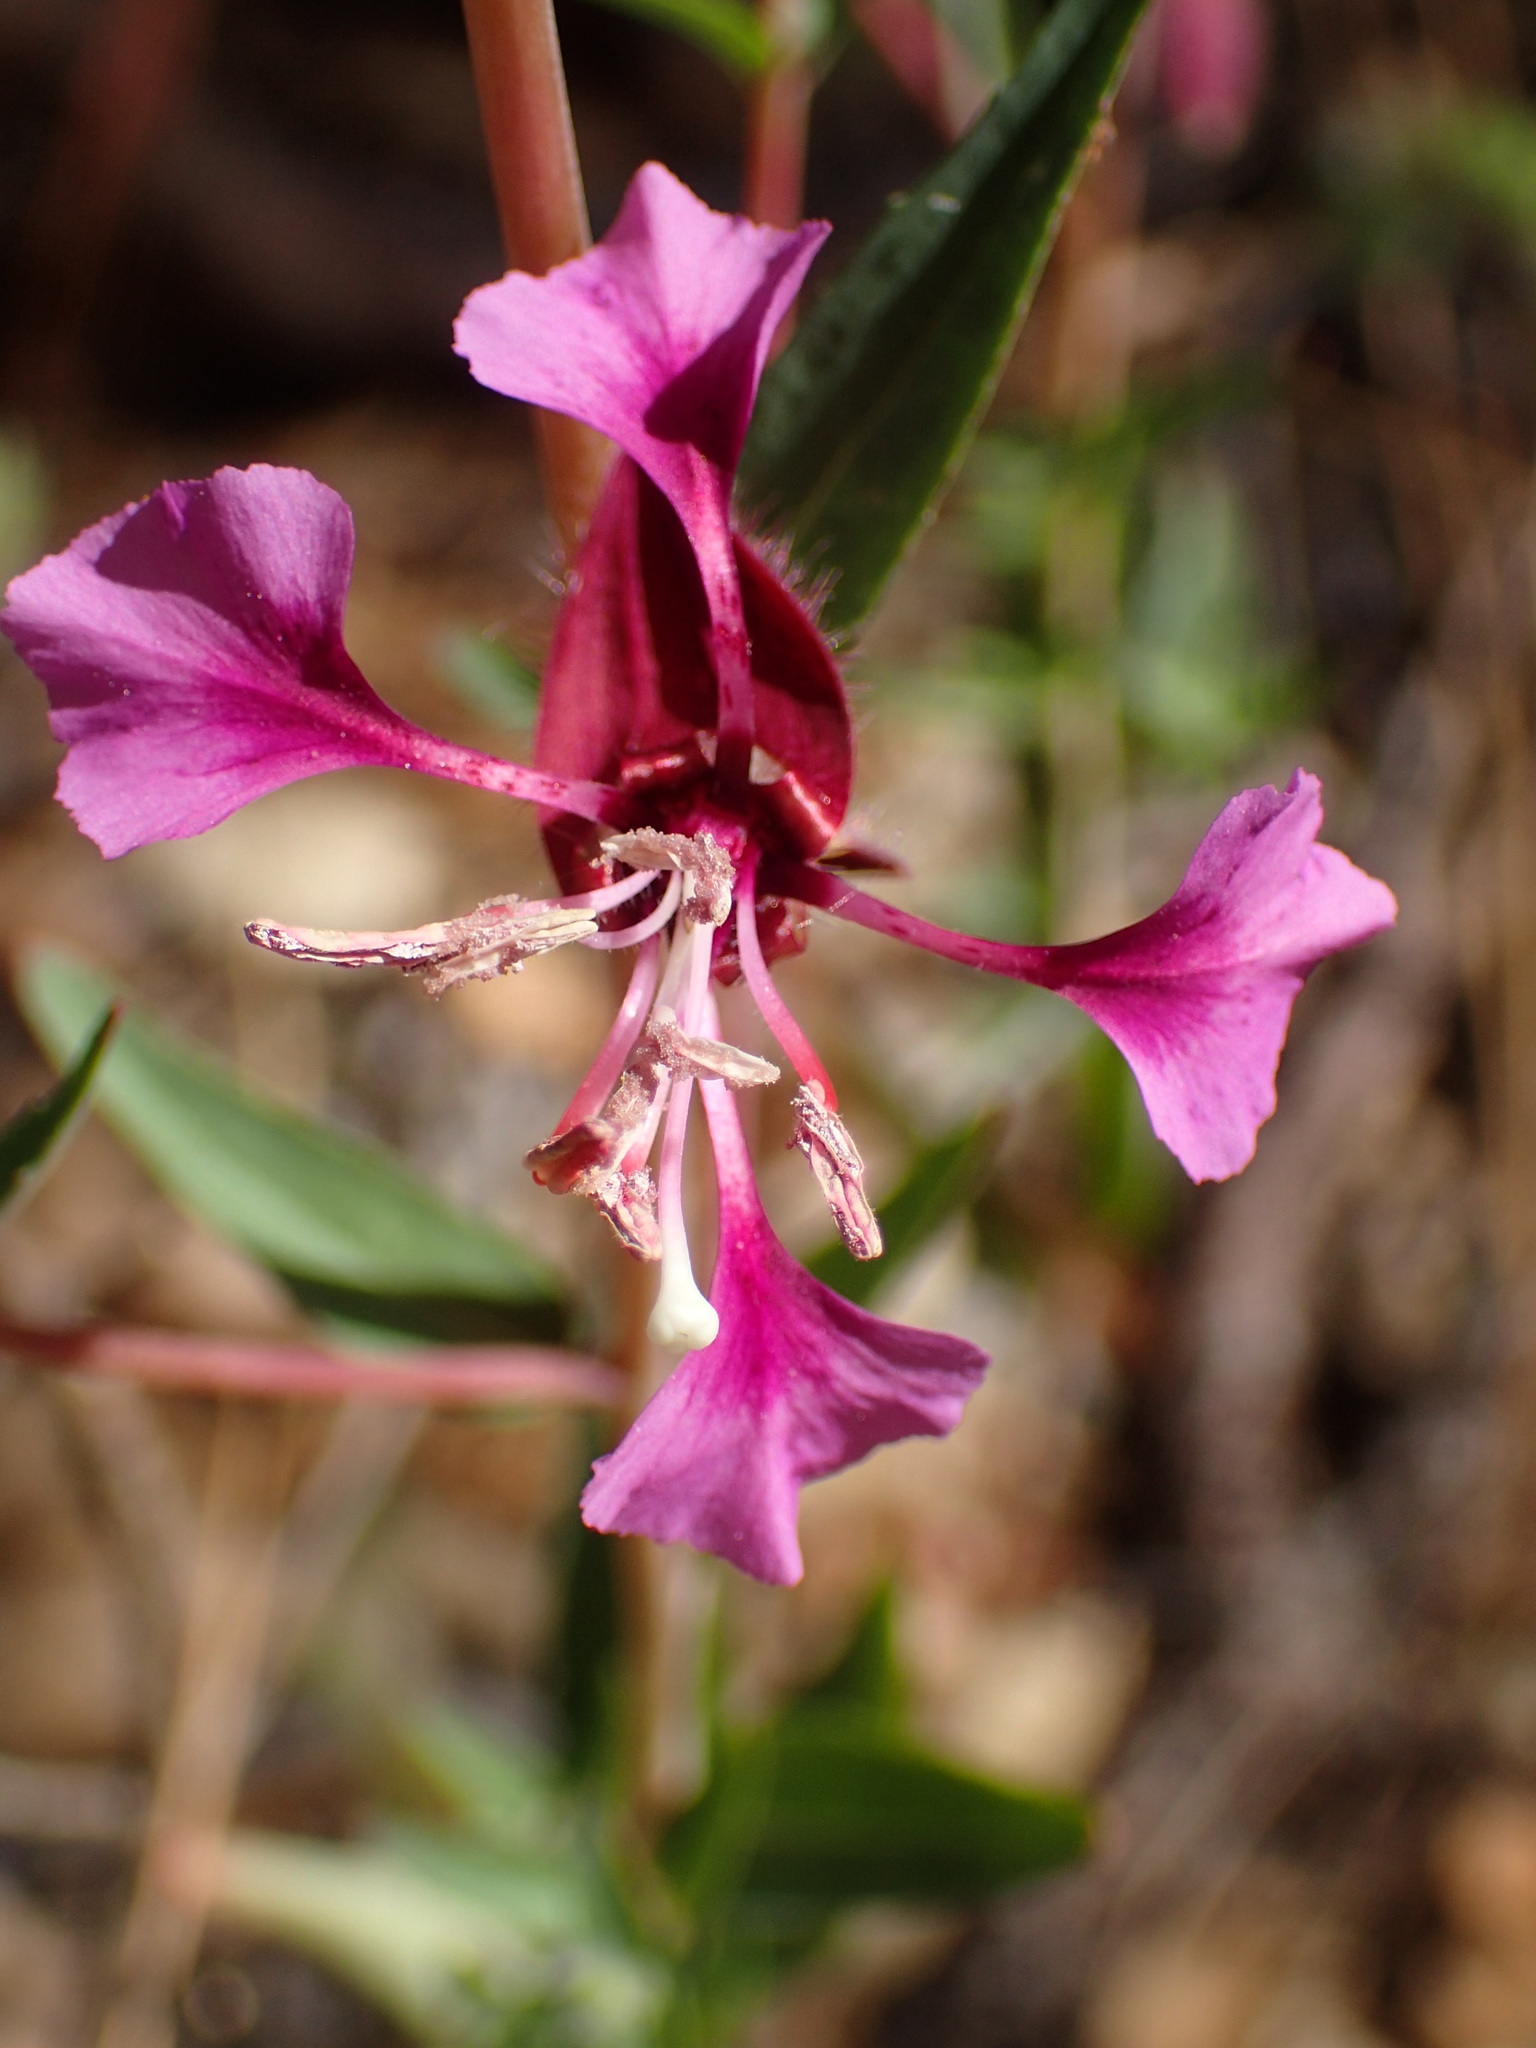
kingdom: Plantae
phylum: Tracheophyta
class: Magnoliopsida
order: Myrtales
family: Onagraceae
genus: Clarkia
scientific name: Clarkia unguiculata
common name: Clarkia
